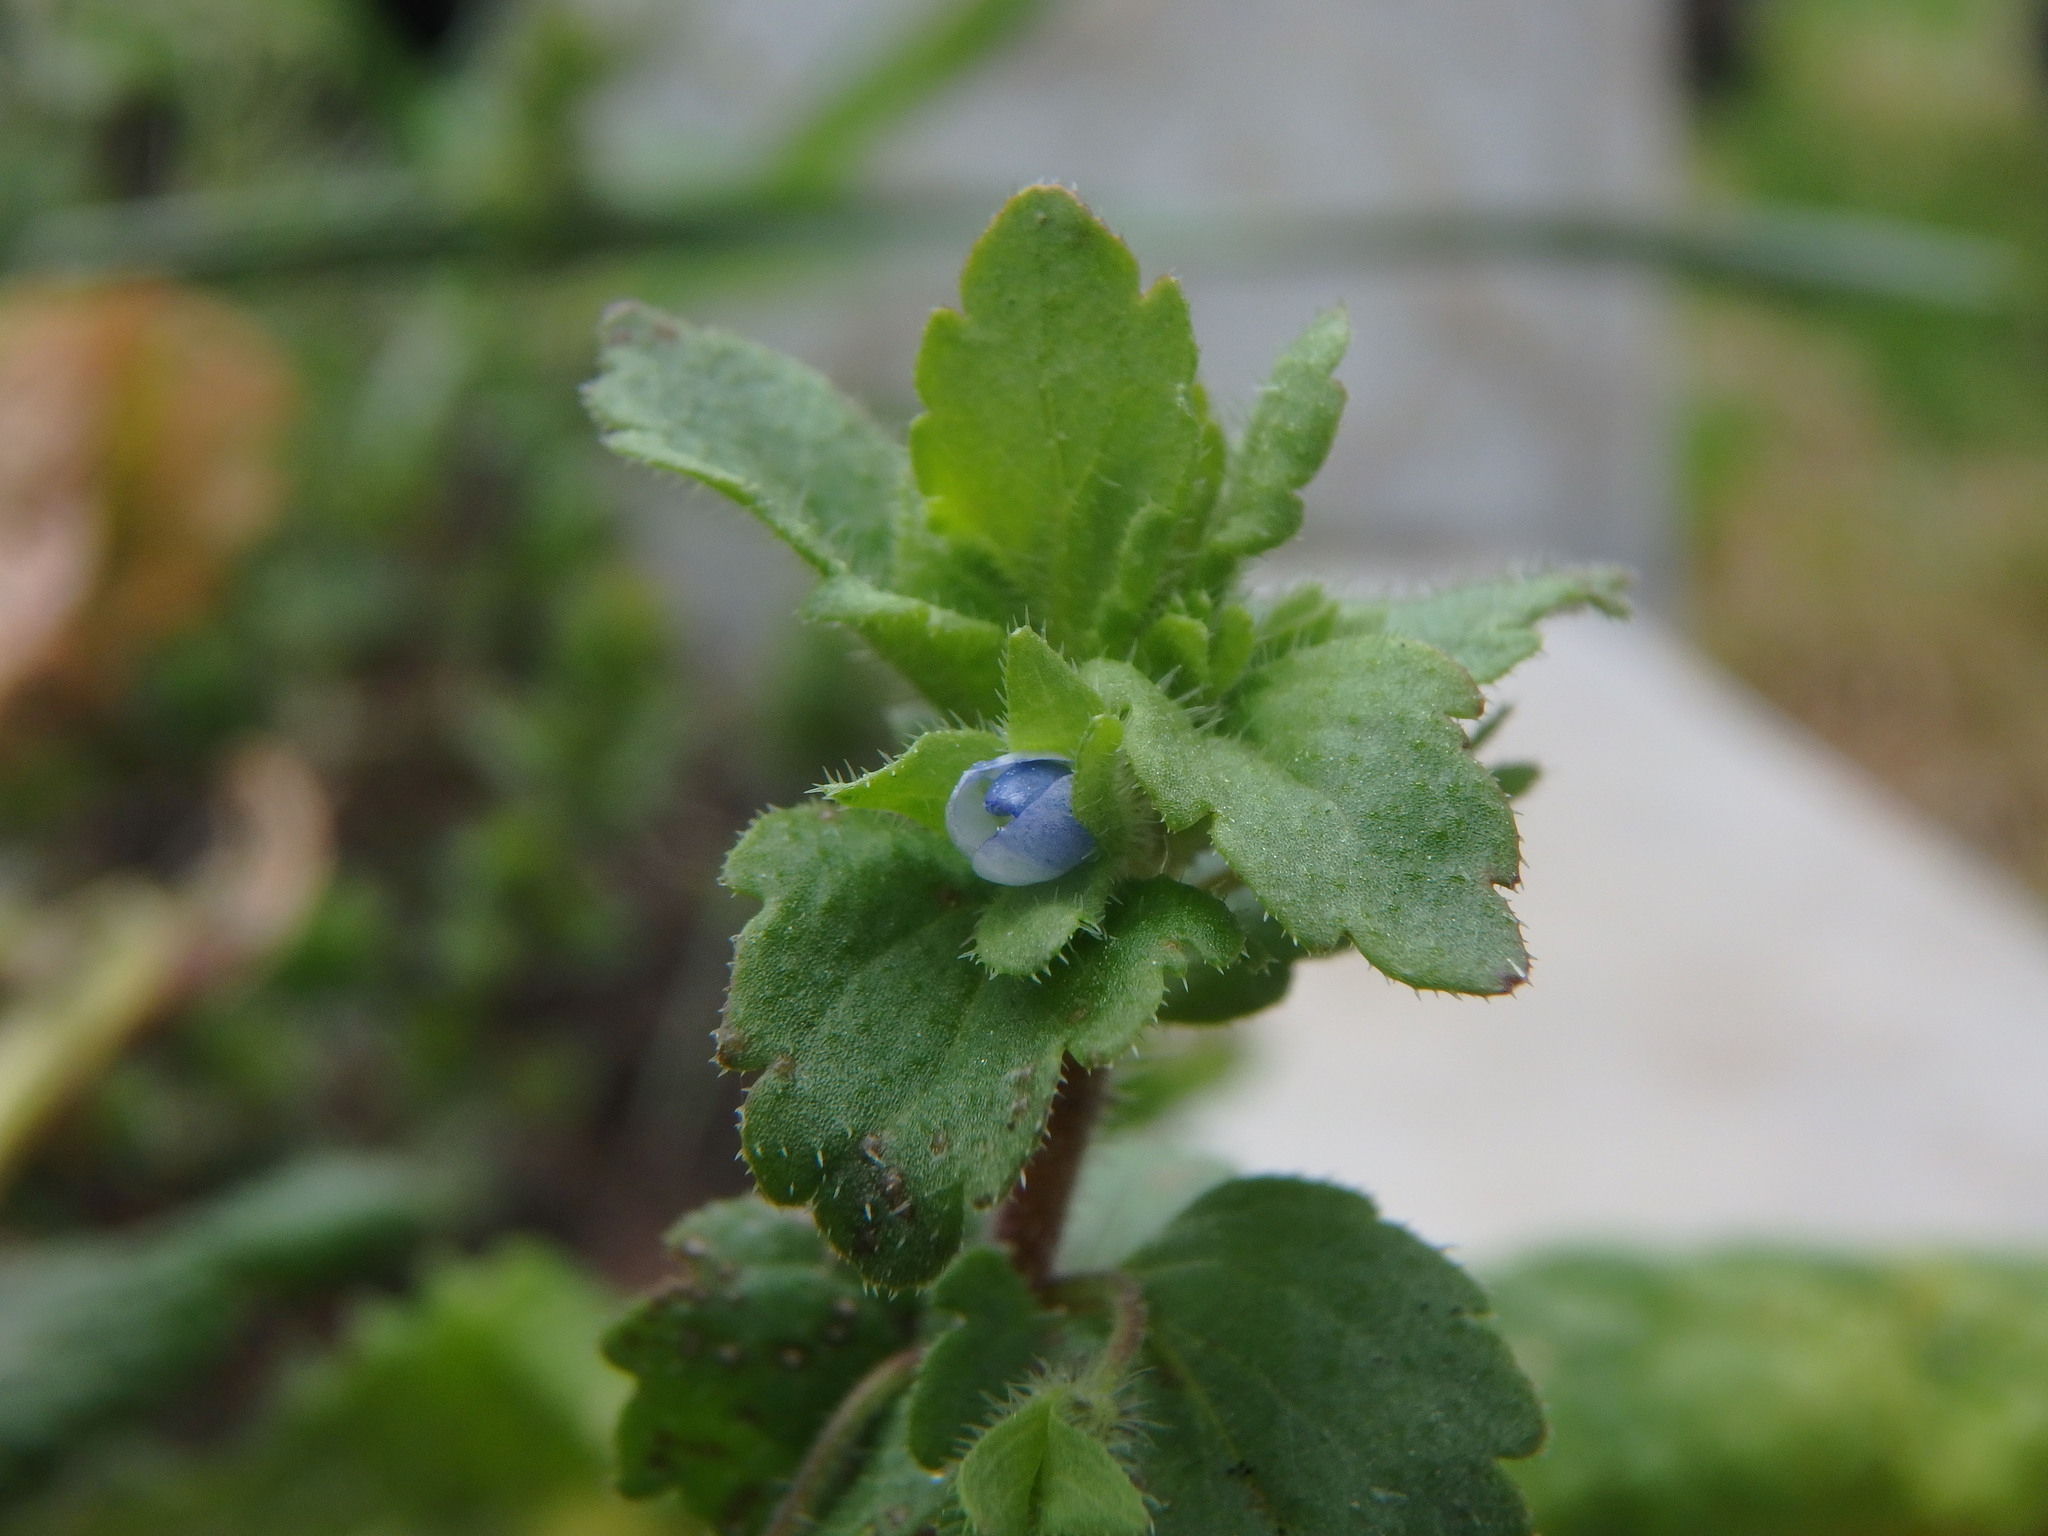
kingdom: Plantae
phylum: Tracheophyta
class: Magnoliopsida
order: Lamiales
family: Plantaginaceae
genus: Veronica
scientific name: Veronica agrestis
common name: Green field-speedwell
